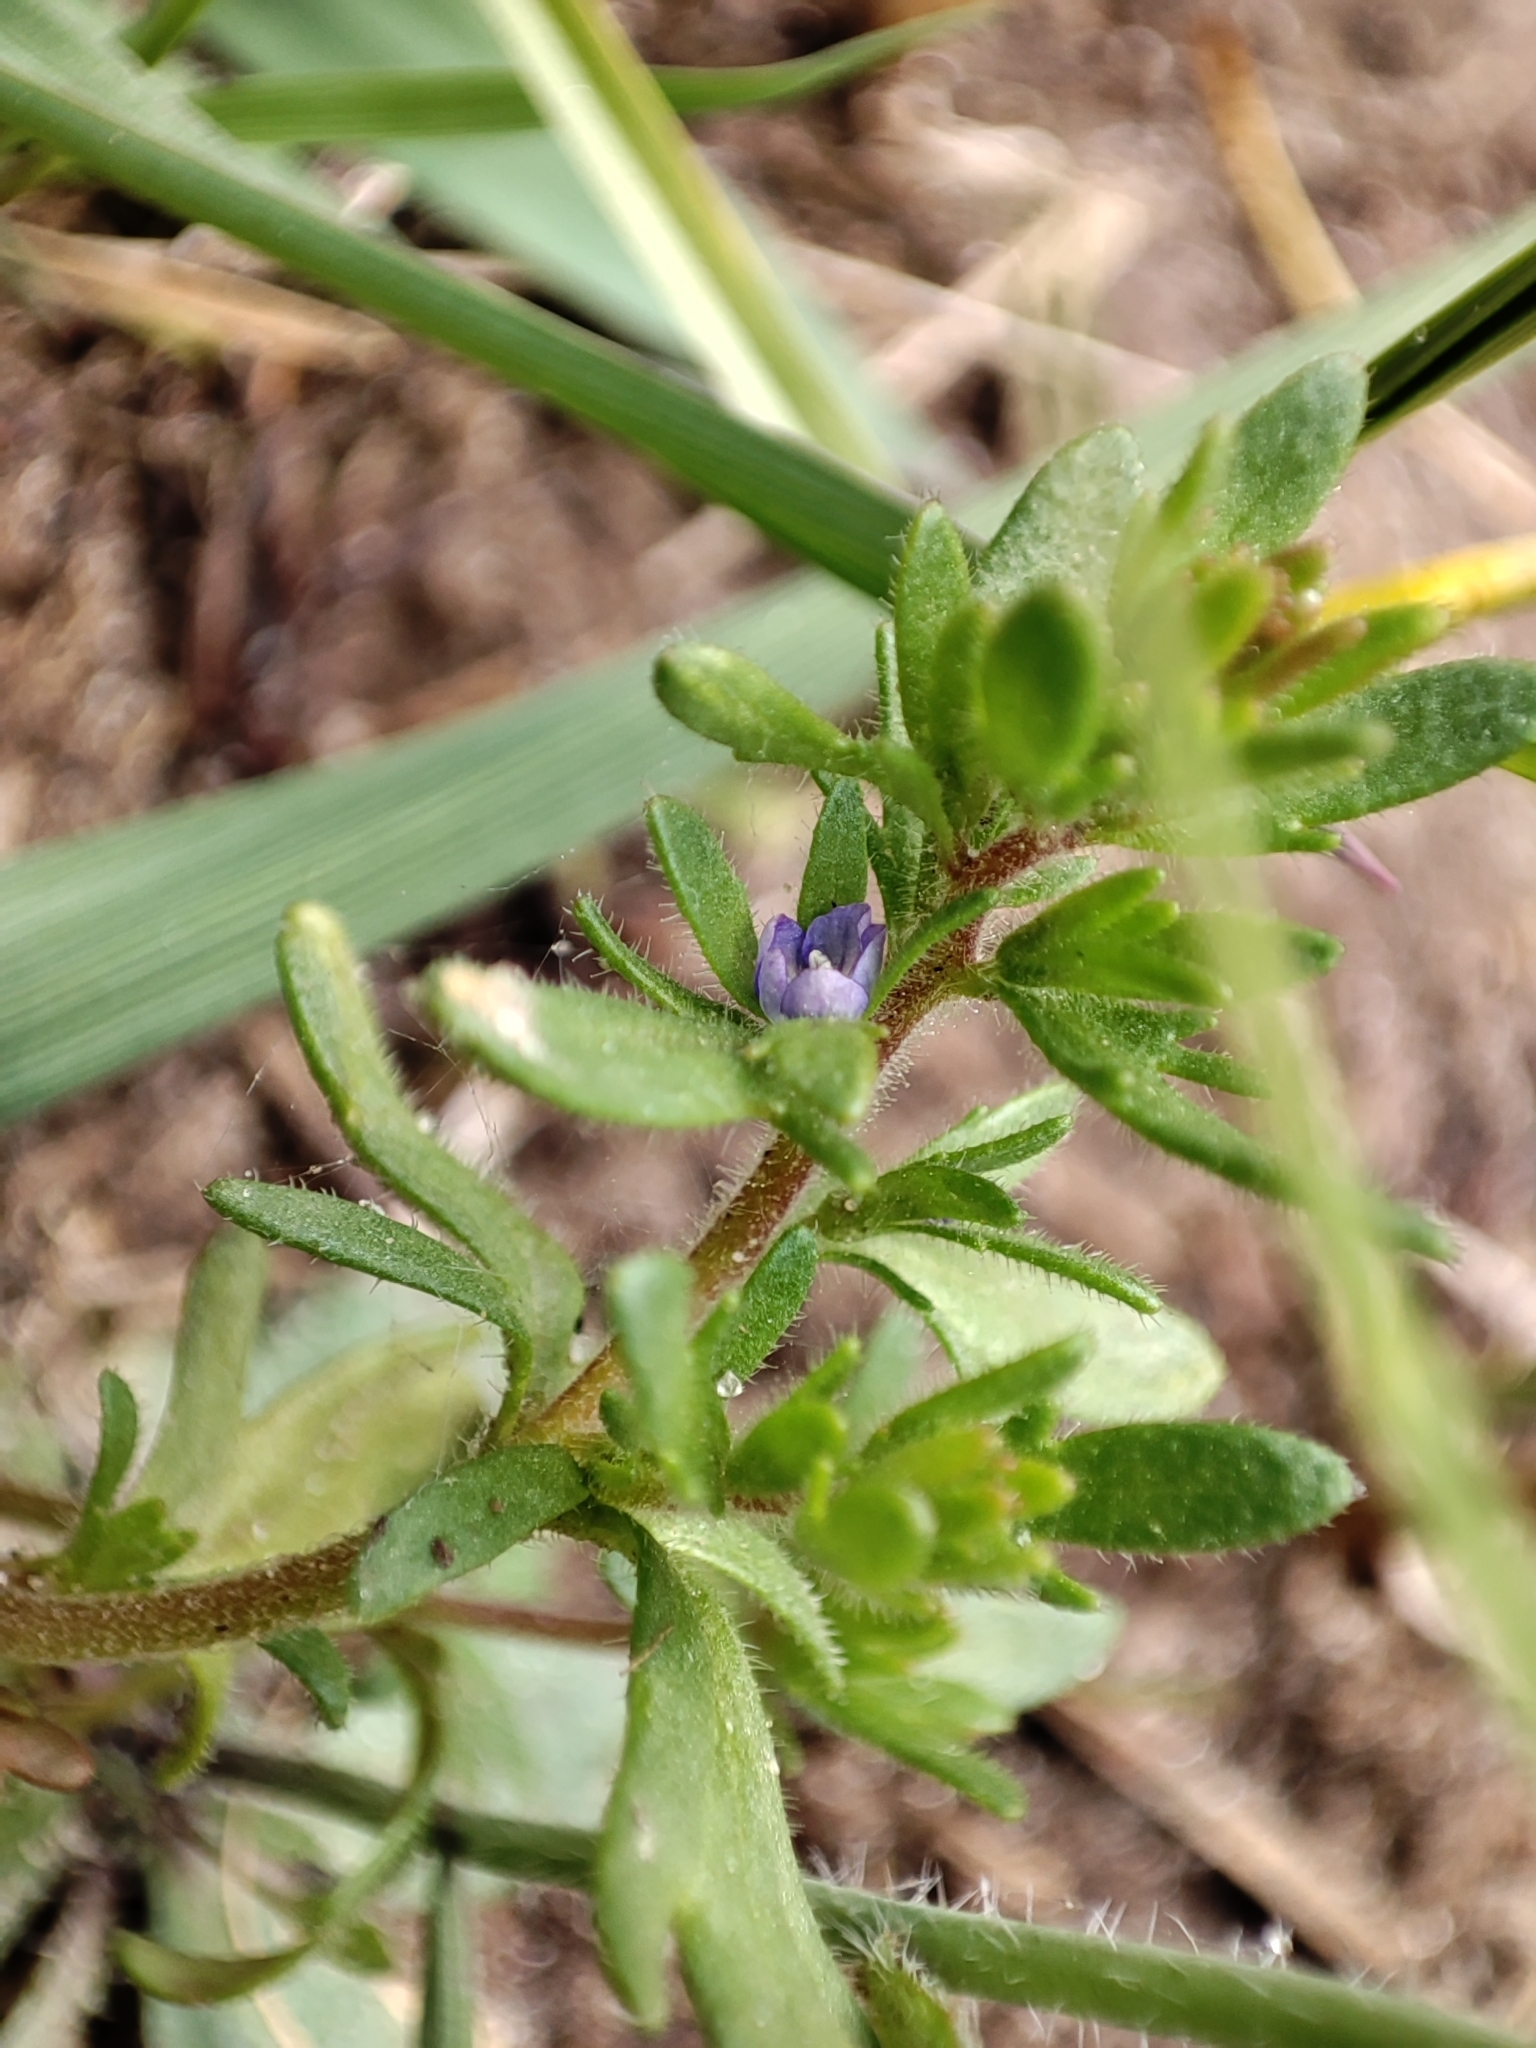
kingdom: Plantae
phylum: Tracheophyta
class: Magnoliopsida
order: Lamiales
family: Plantaginaceae
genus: Veronica
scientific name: Veronica verna
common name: Spring speedwell
